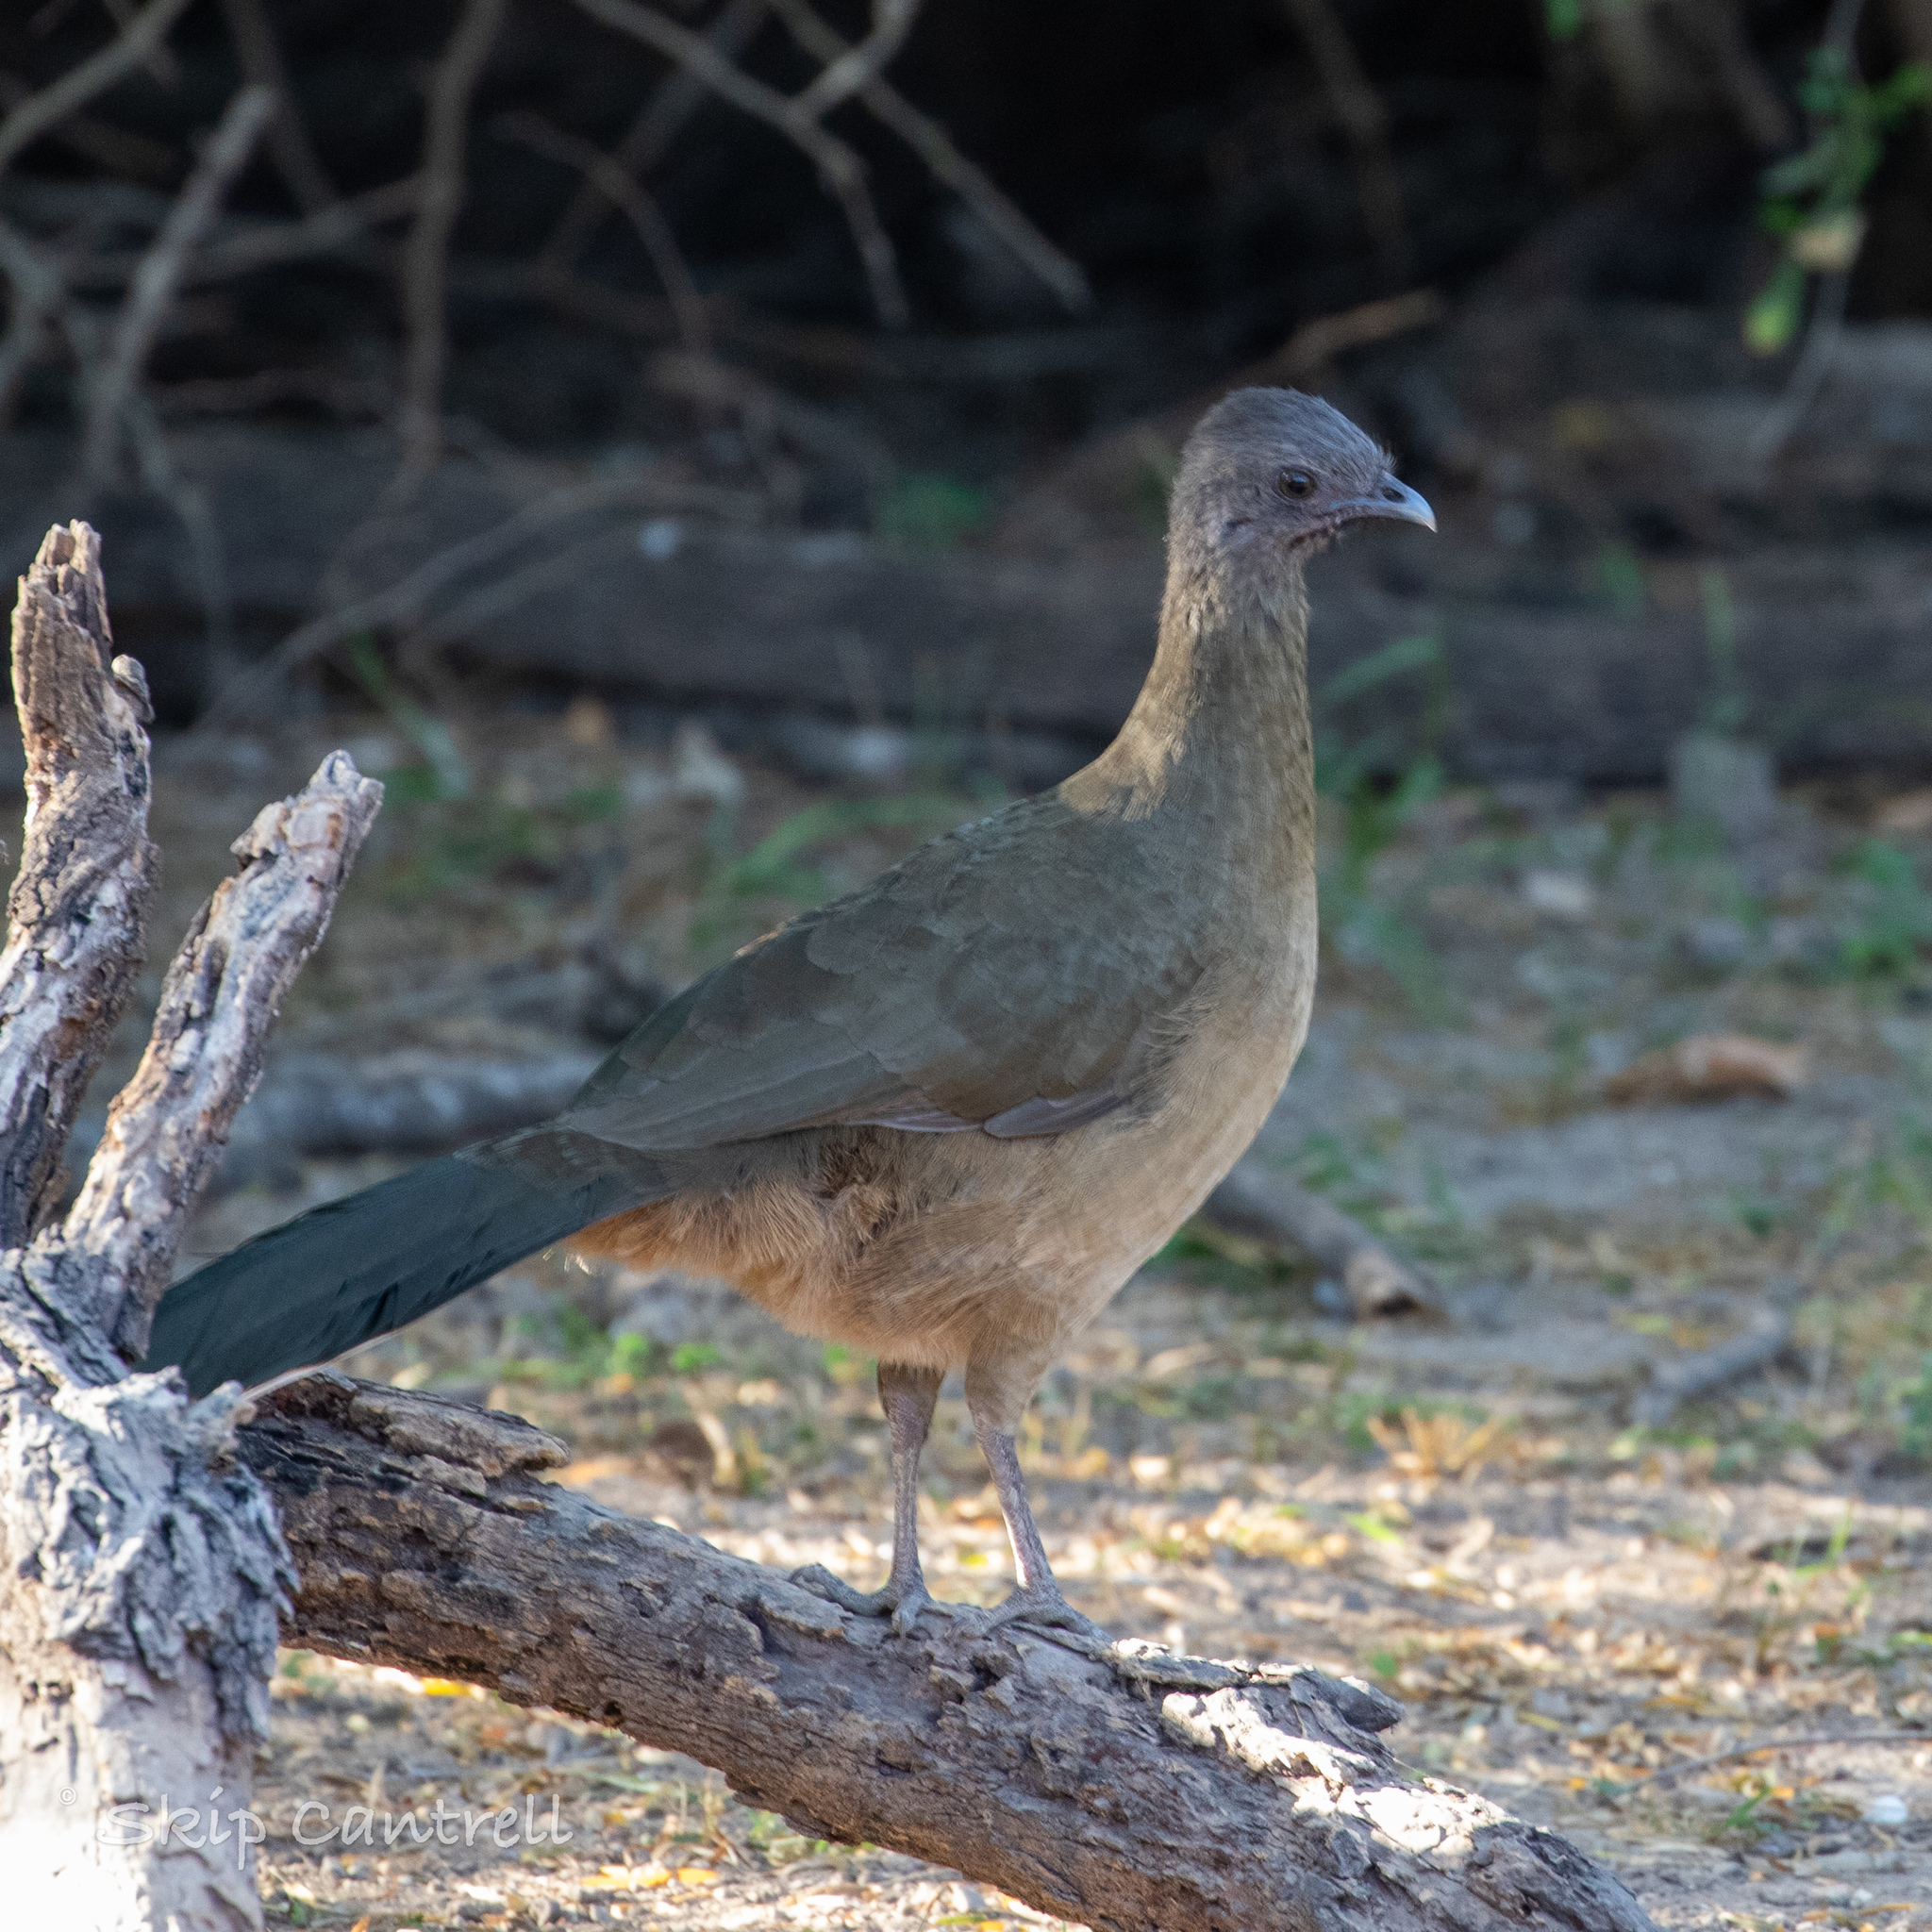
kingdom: Animalia
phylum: Chordata
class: Aves
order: Galliformes
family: Cracidae
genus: Ortalis
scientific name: Ortalis vetula
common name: Plain chachalaca
